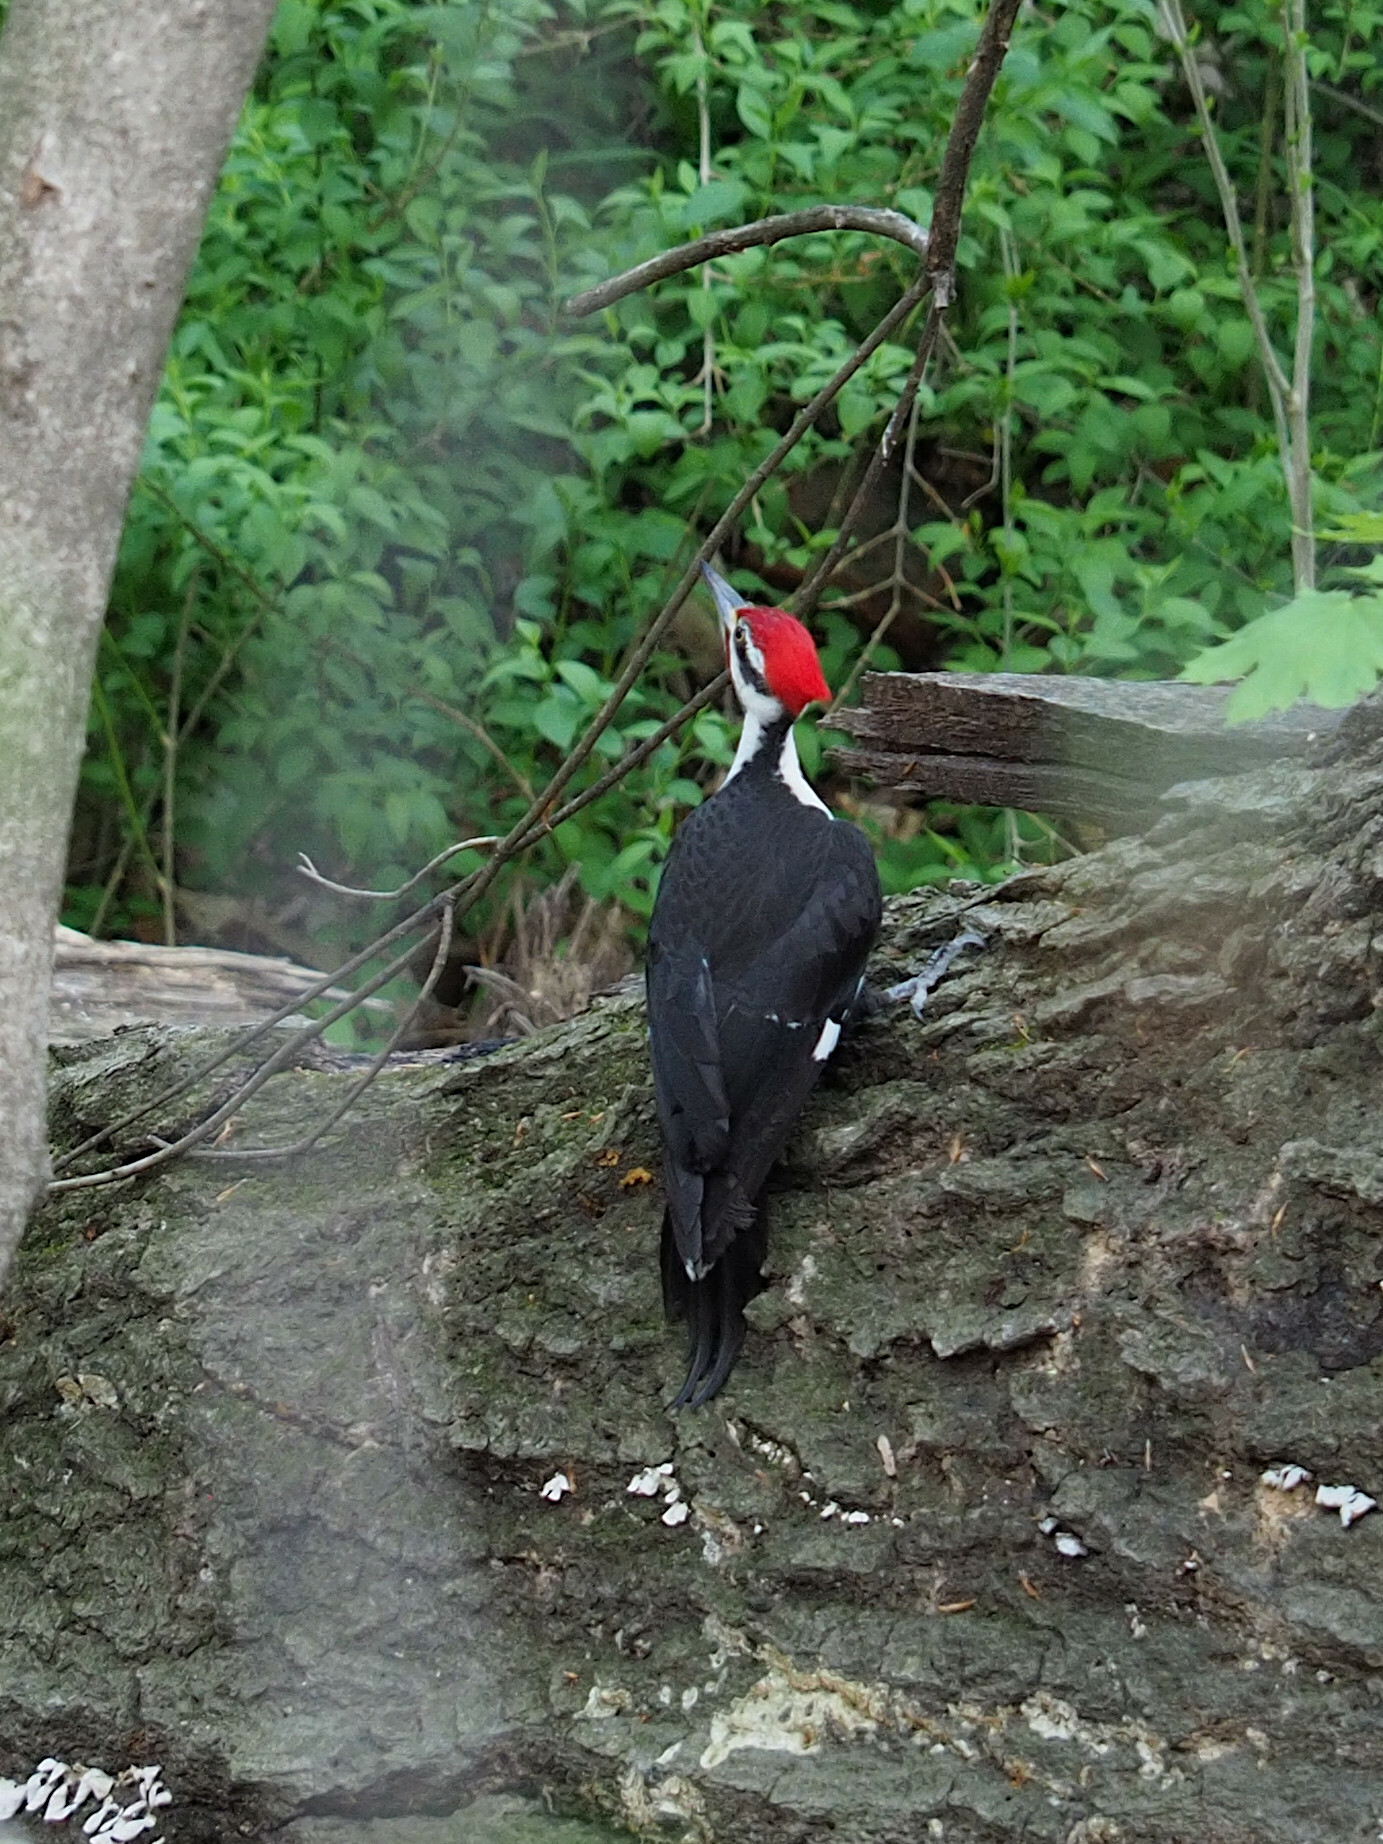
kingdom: Animalia
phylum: Chordata
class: Aves
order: Piciformes
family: Picidae
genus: Dryocopus
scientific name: Dryocopus pileatus
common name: Pileated woodpecker
